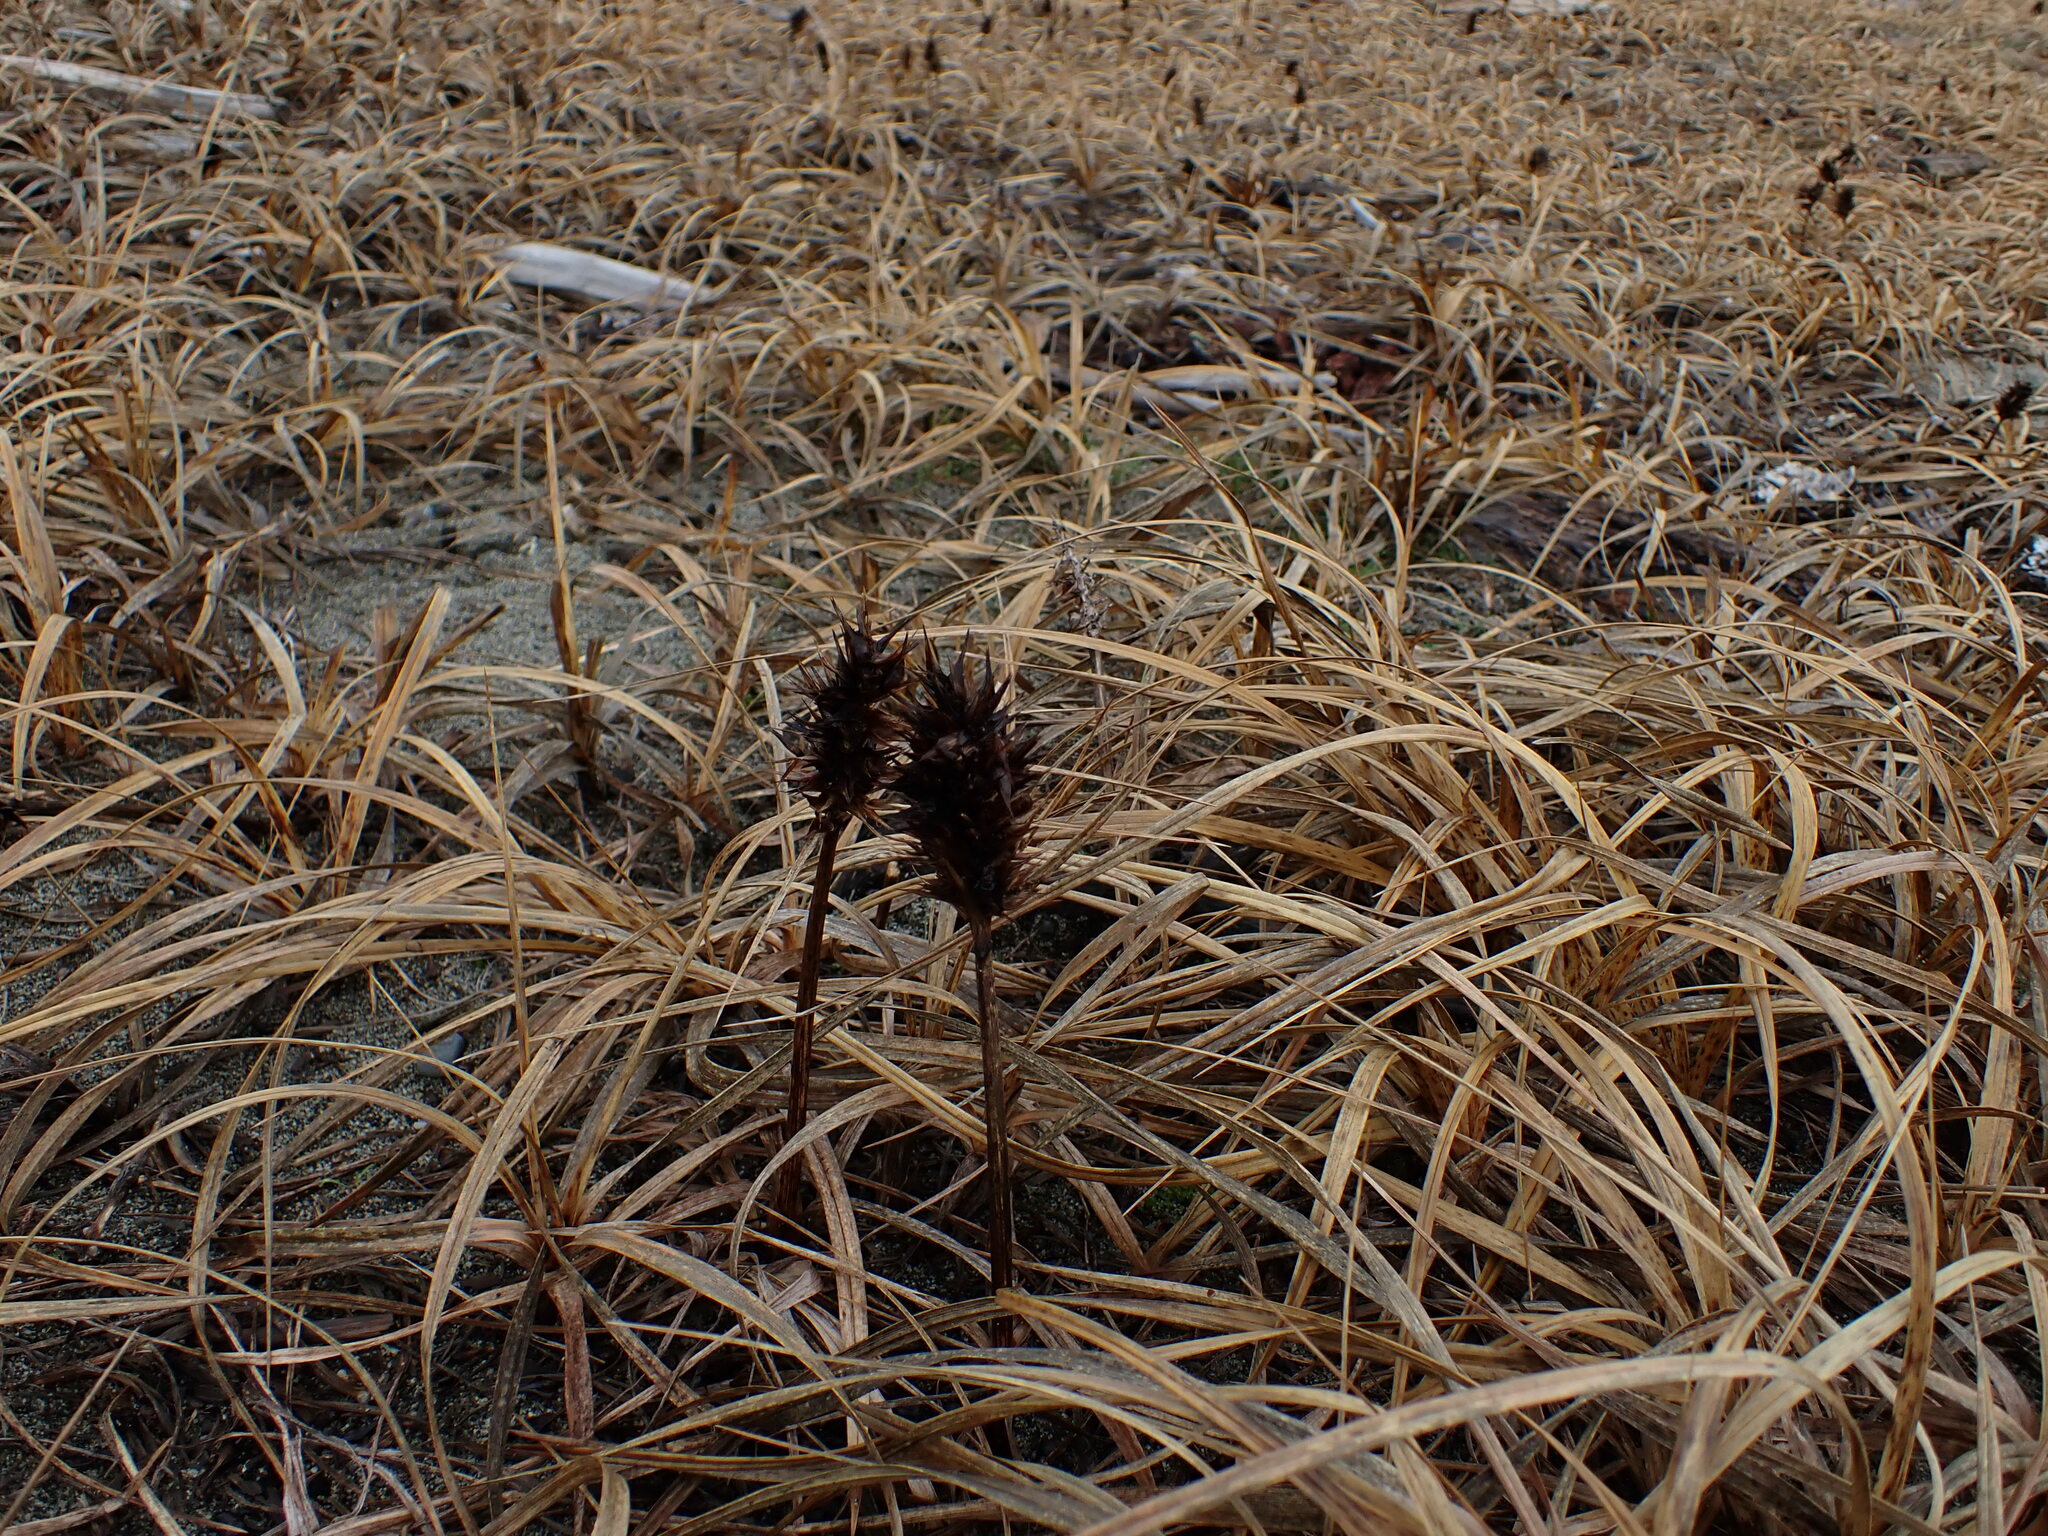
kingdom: Plantae
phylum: Tracheophyta
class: Liliopsida
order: Poales
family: Cyperaceae
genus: Carex
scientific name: Carex macrocephala
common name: Large-head sedge
